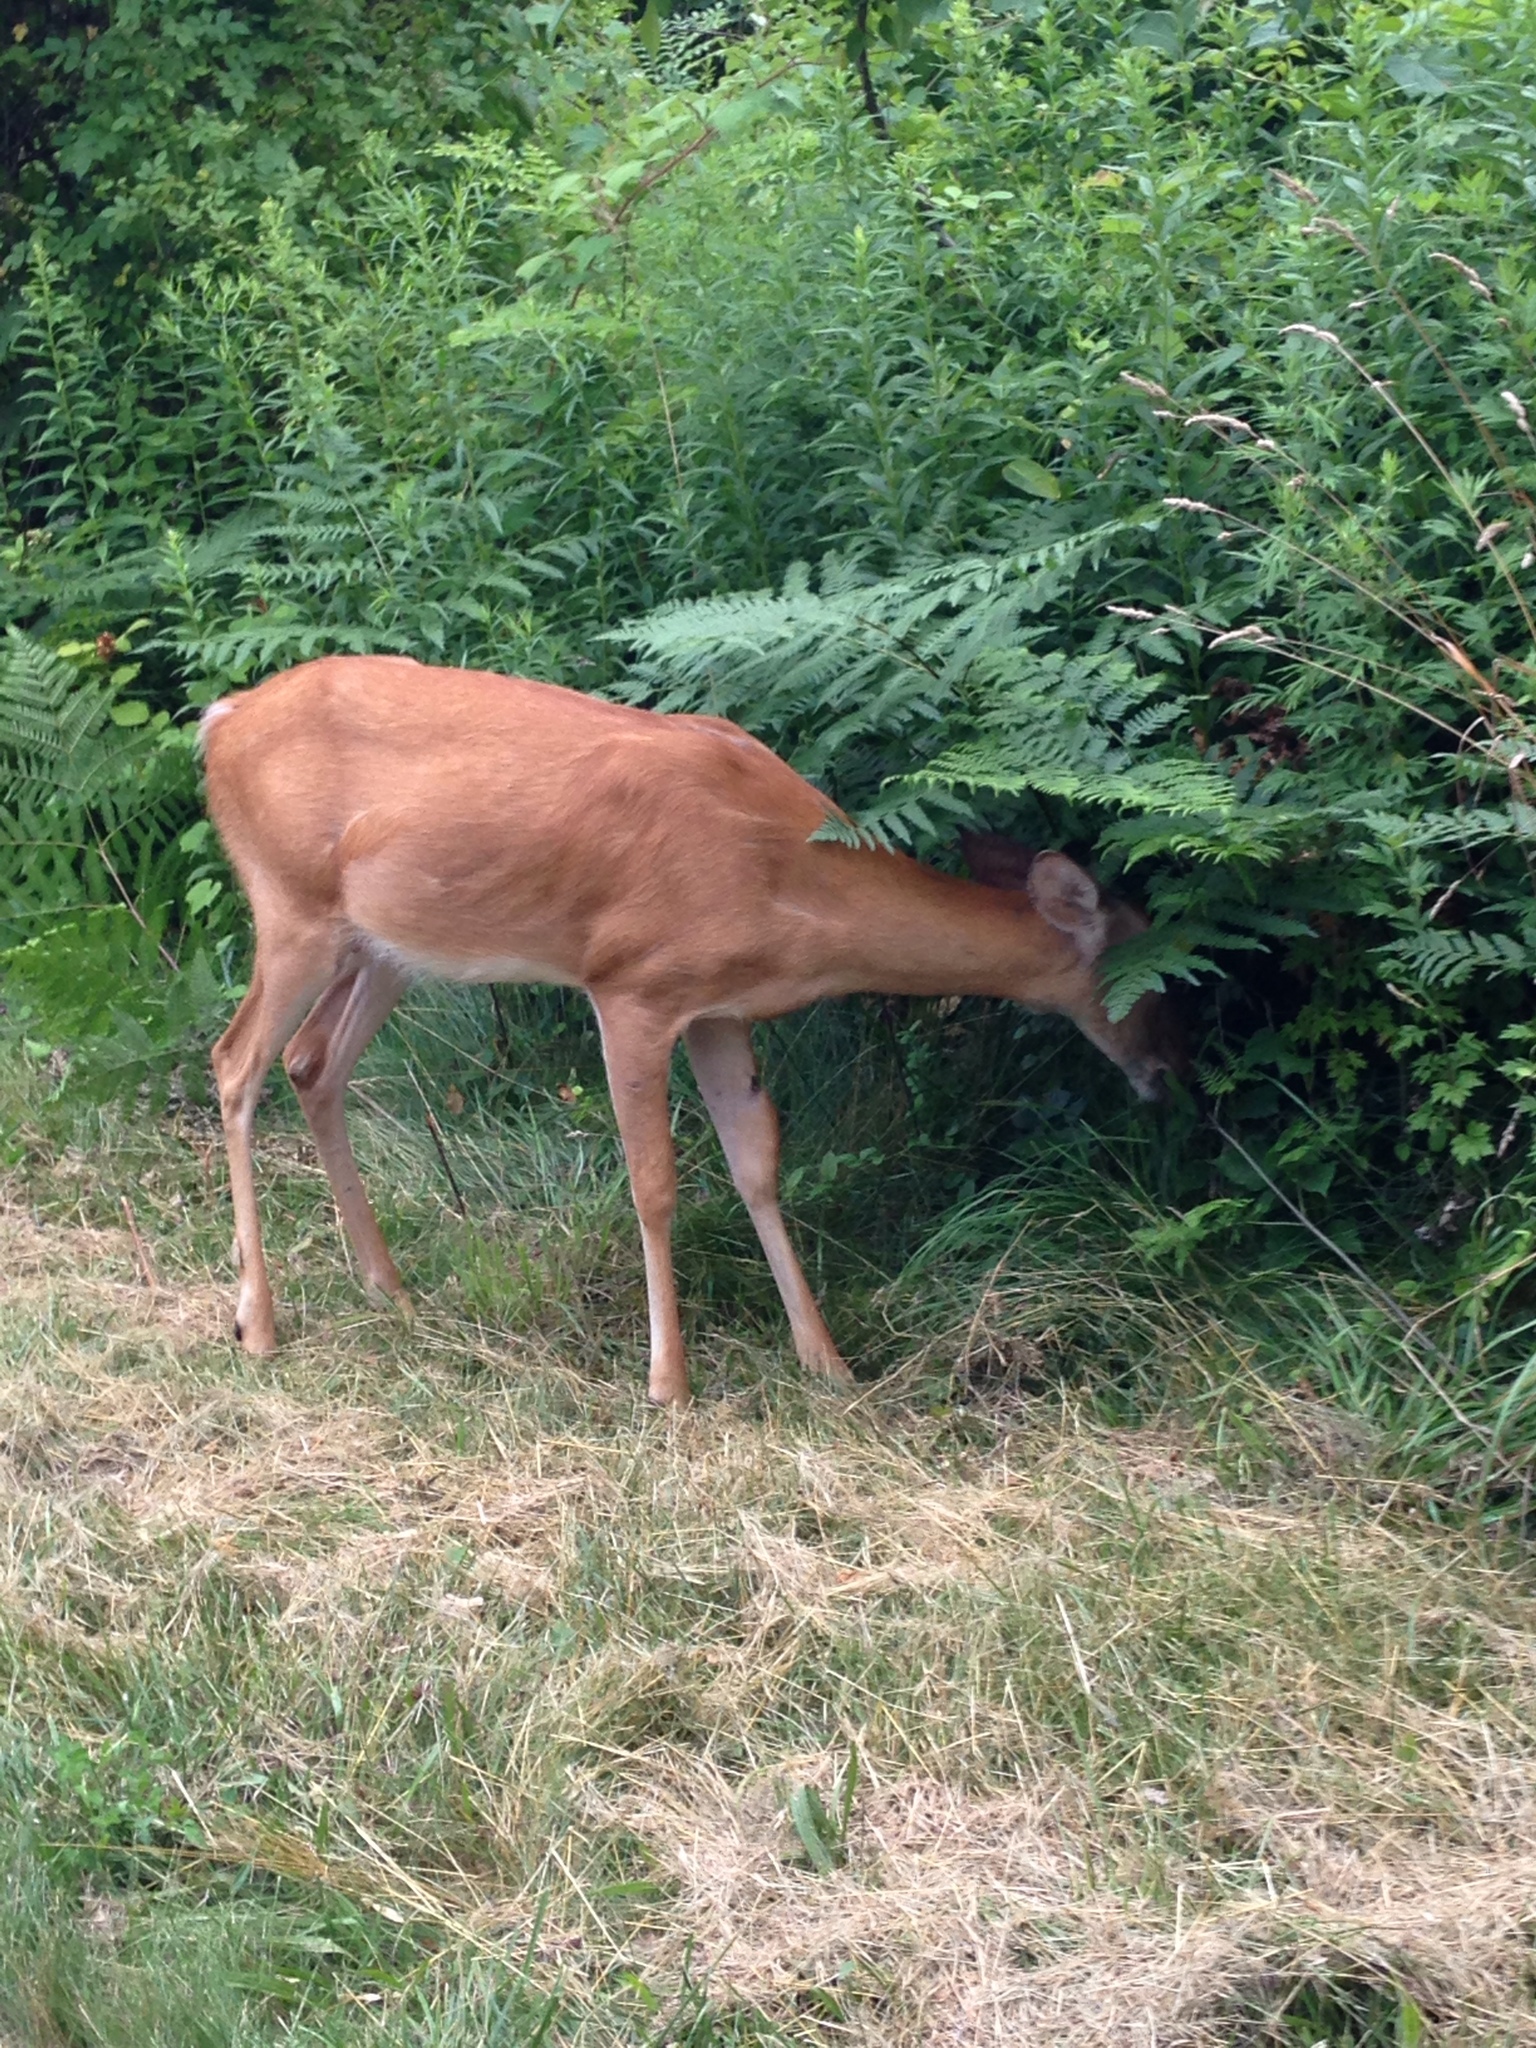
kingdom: Animalia
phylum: Chordata
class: Mammalia
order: Artiodactyla
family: Cervidae
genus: Odocoileus
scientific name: Odocoileus virginianus
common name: White-tailed deer
